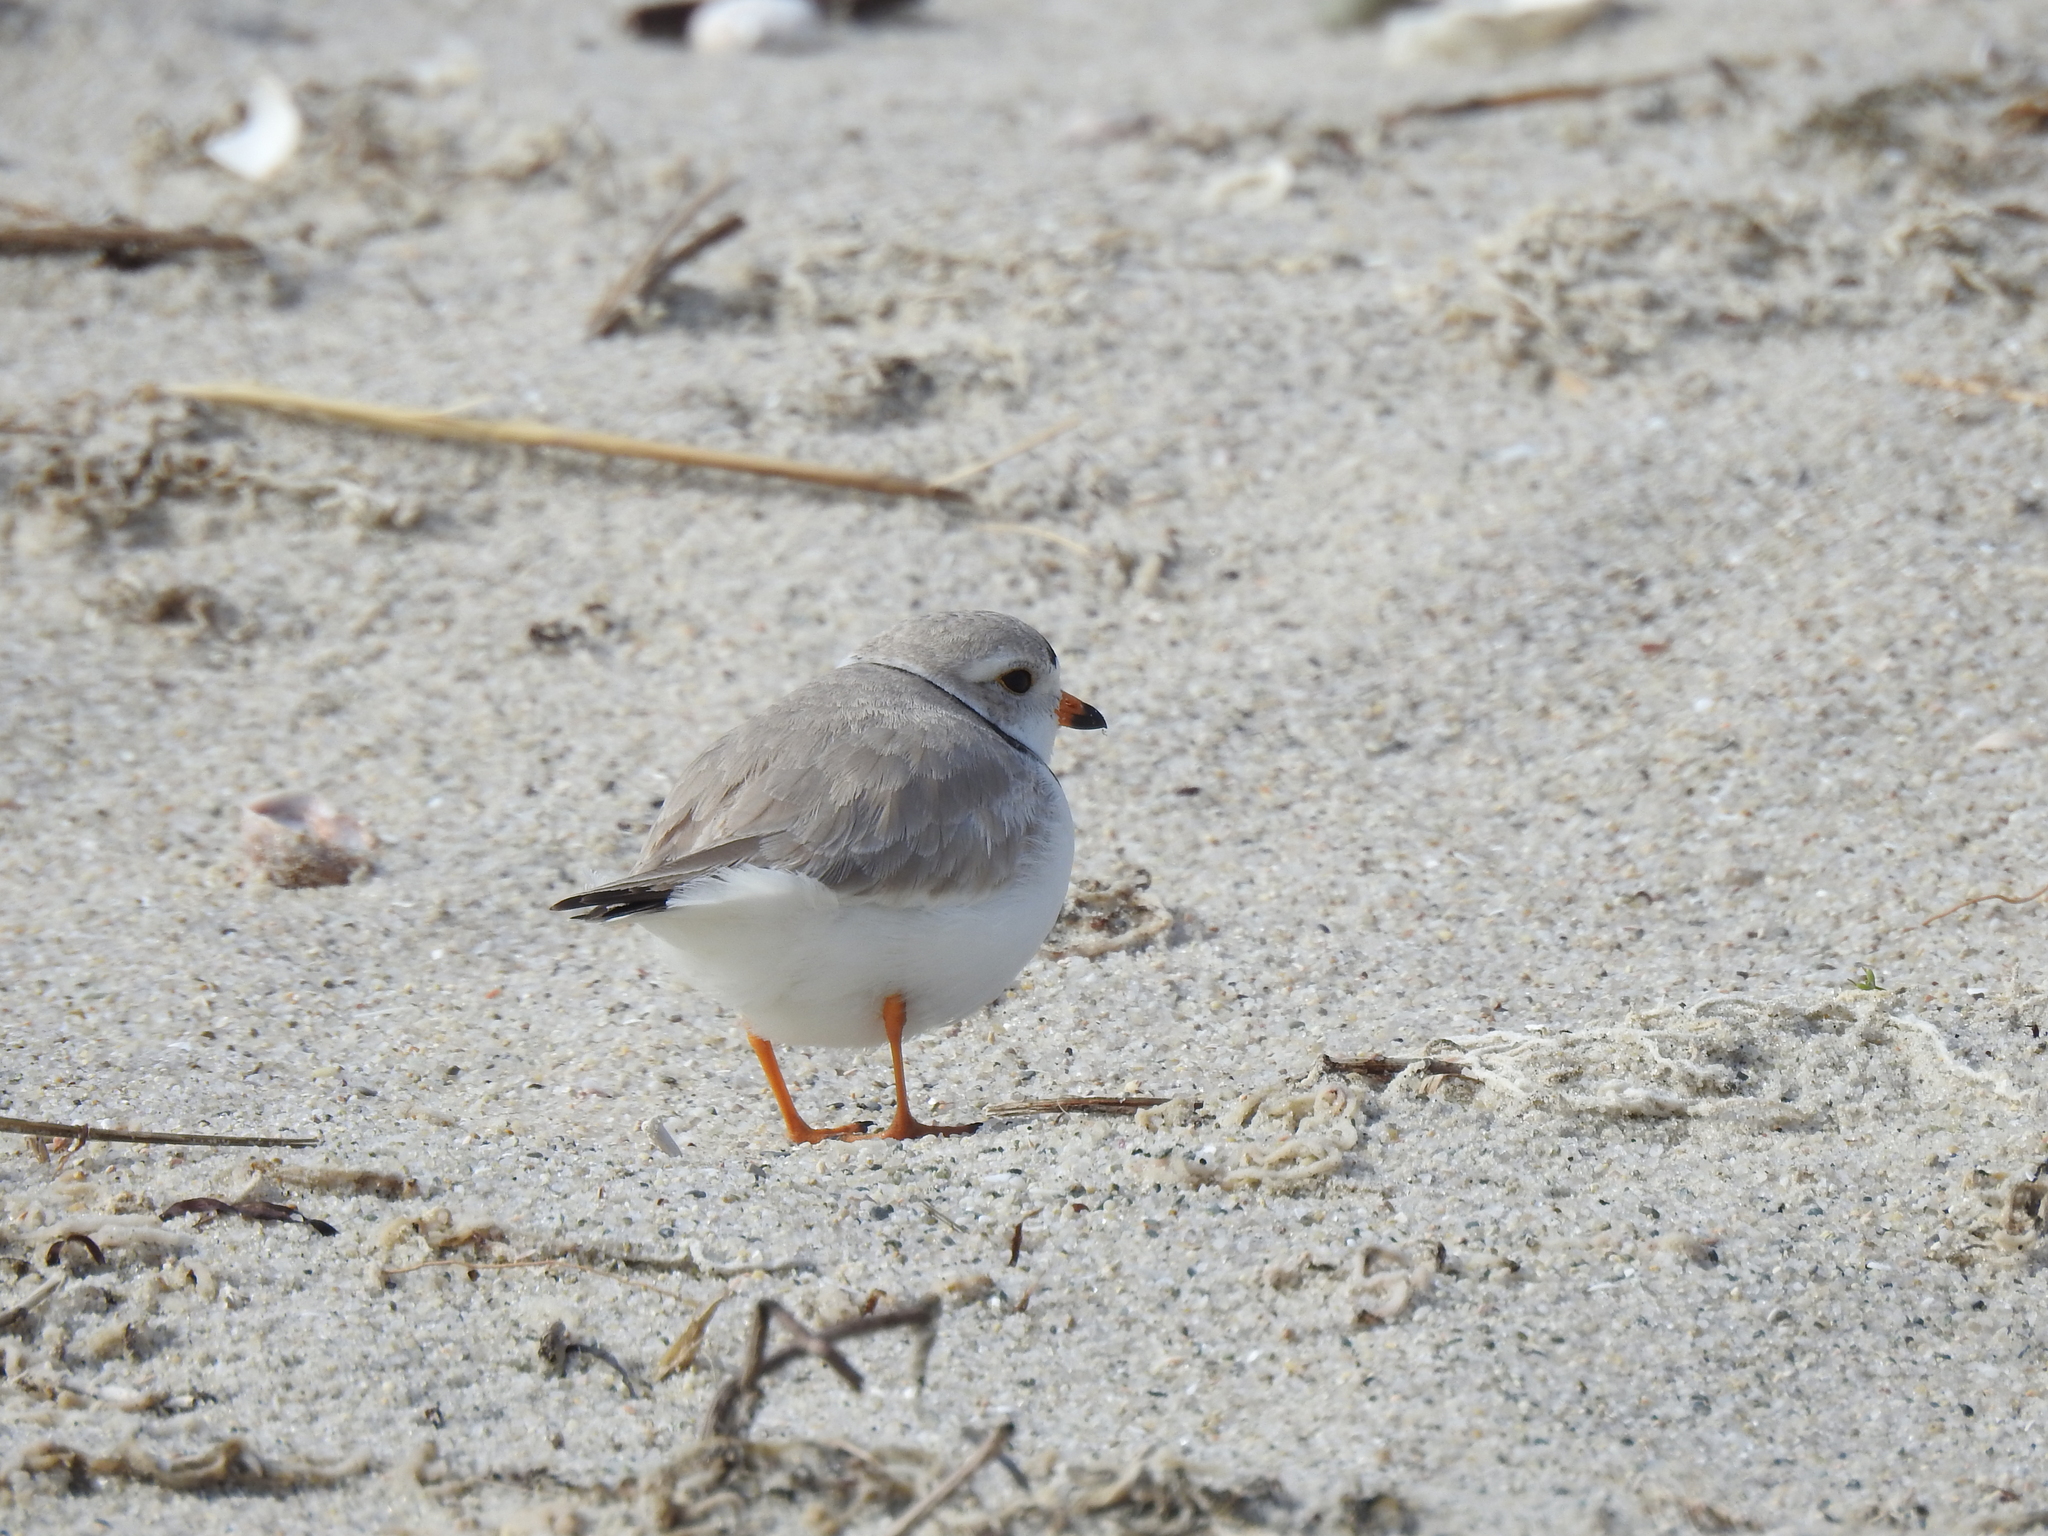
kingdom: Animalia
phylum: Chordata
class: Aves
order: Charadriiformes
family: Charadriidae
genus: Charadrius
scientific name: Charadrius melodus
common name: Piping plover
